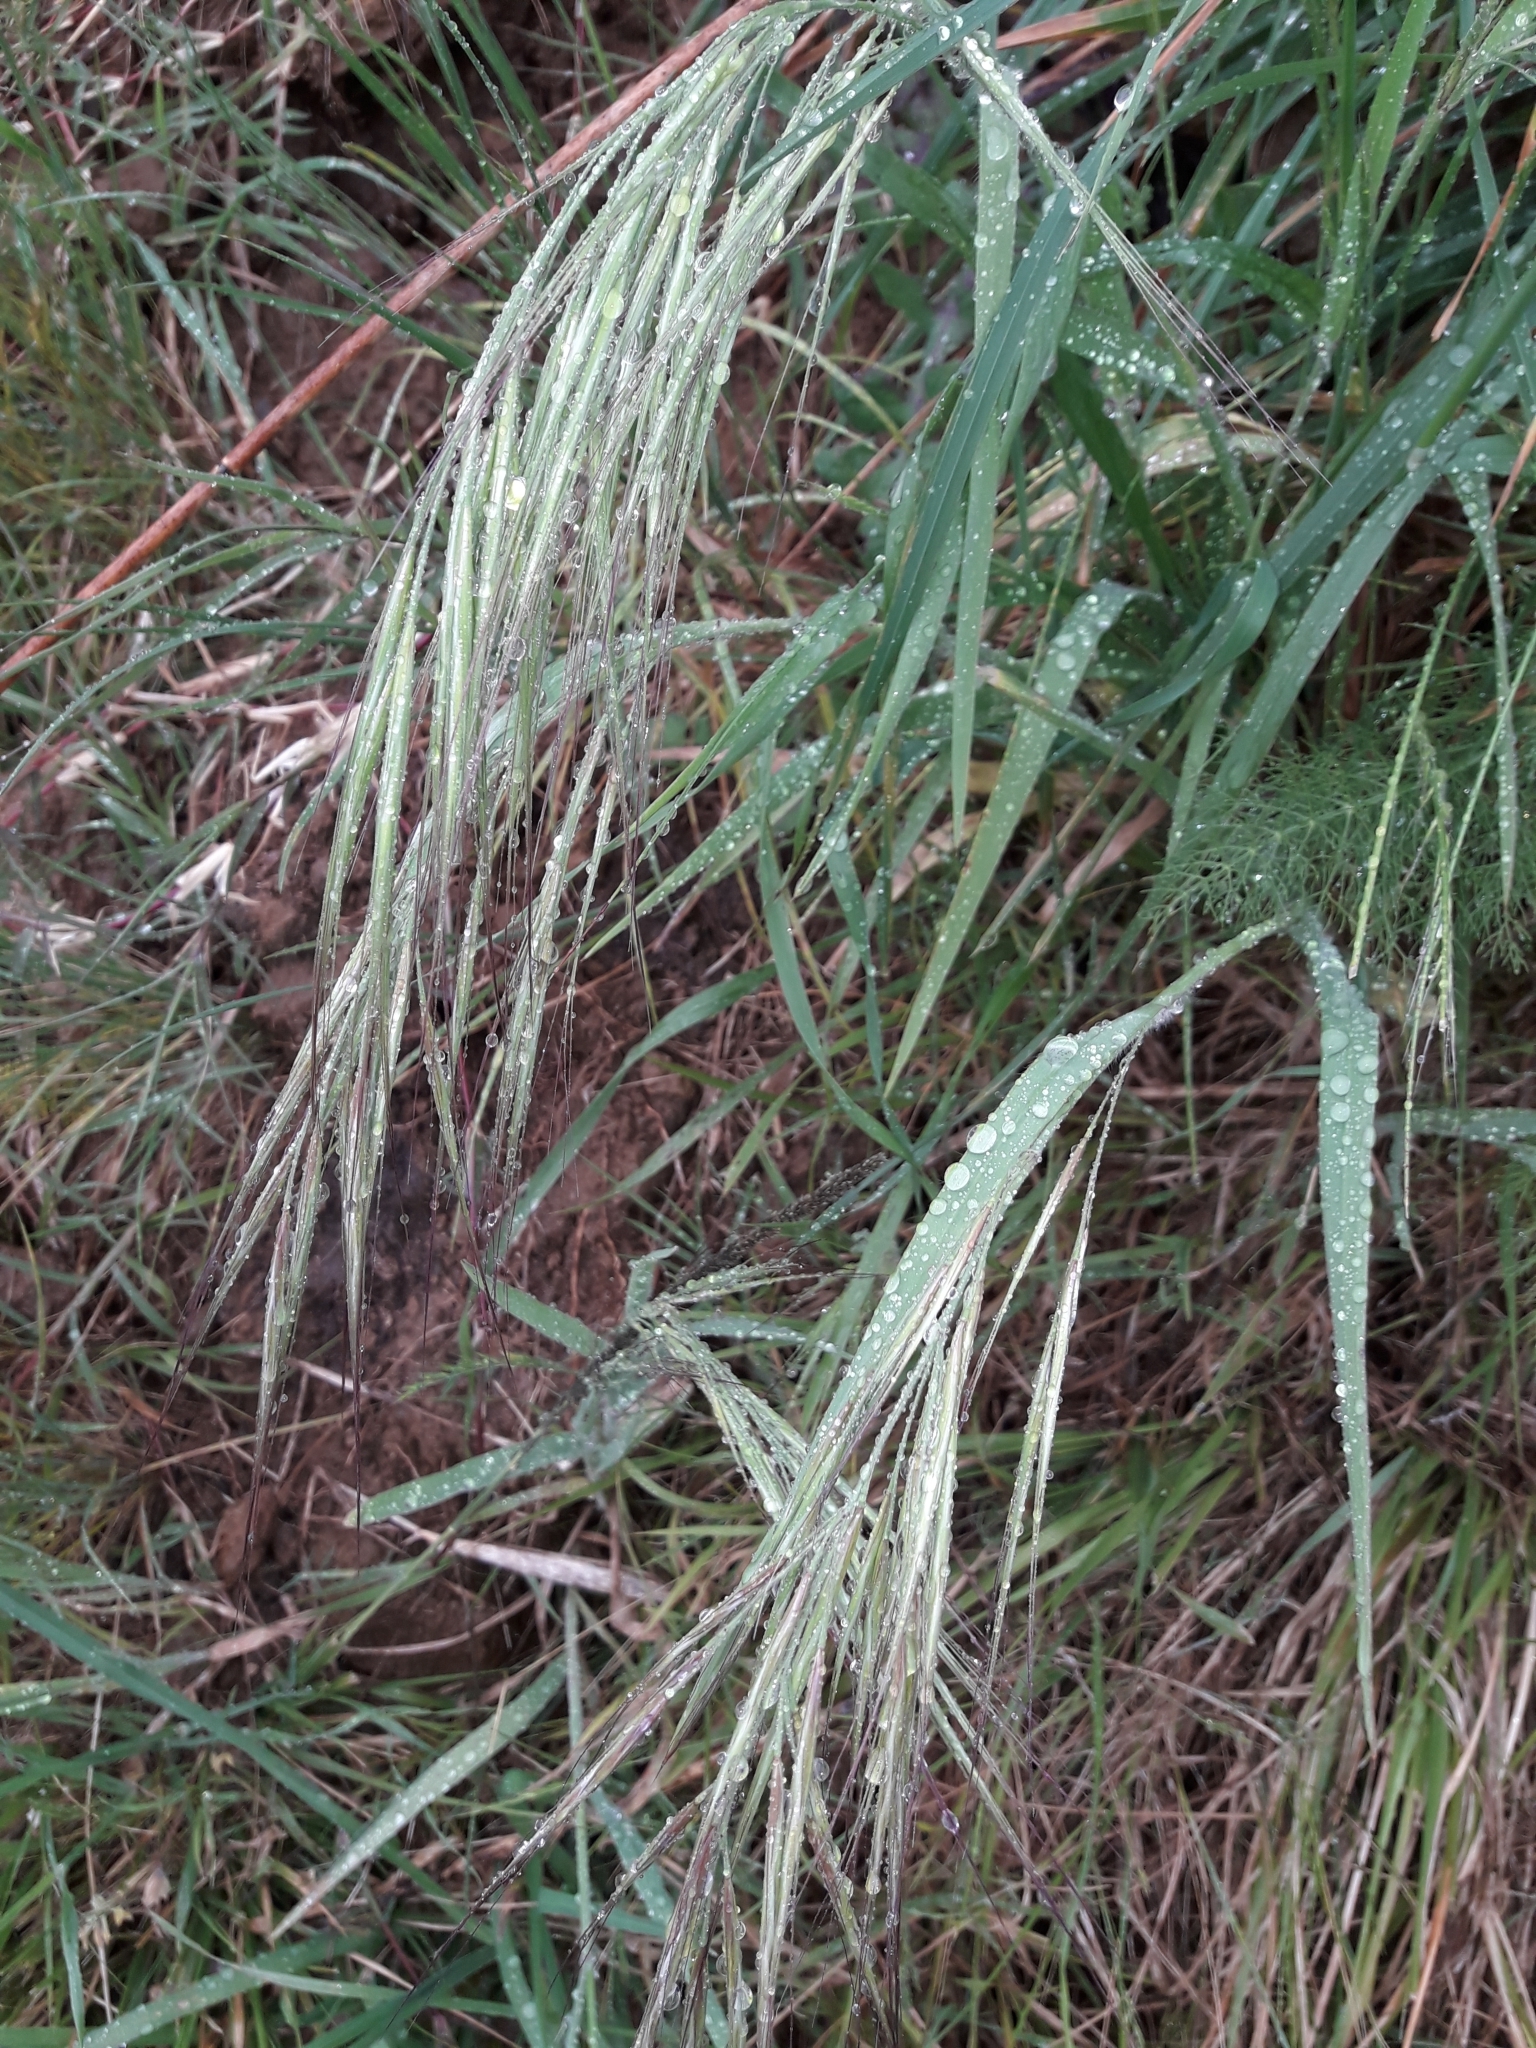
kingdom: Plantae
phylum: Tracheophyta
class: Liliopsida
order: Poales
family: Poaceae
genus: Bromus
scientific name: Bromus diandrus
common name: Ripgut brome
